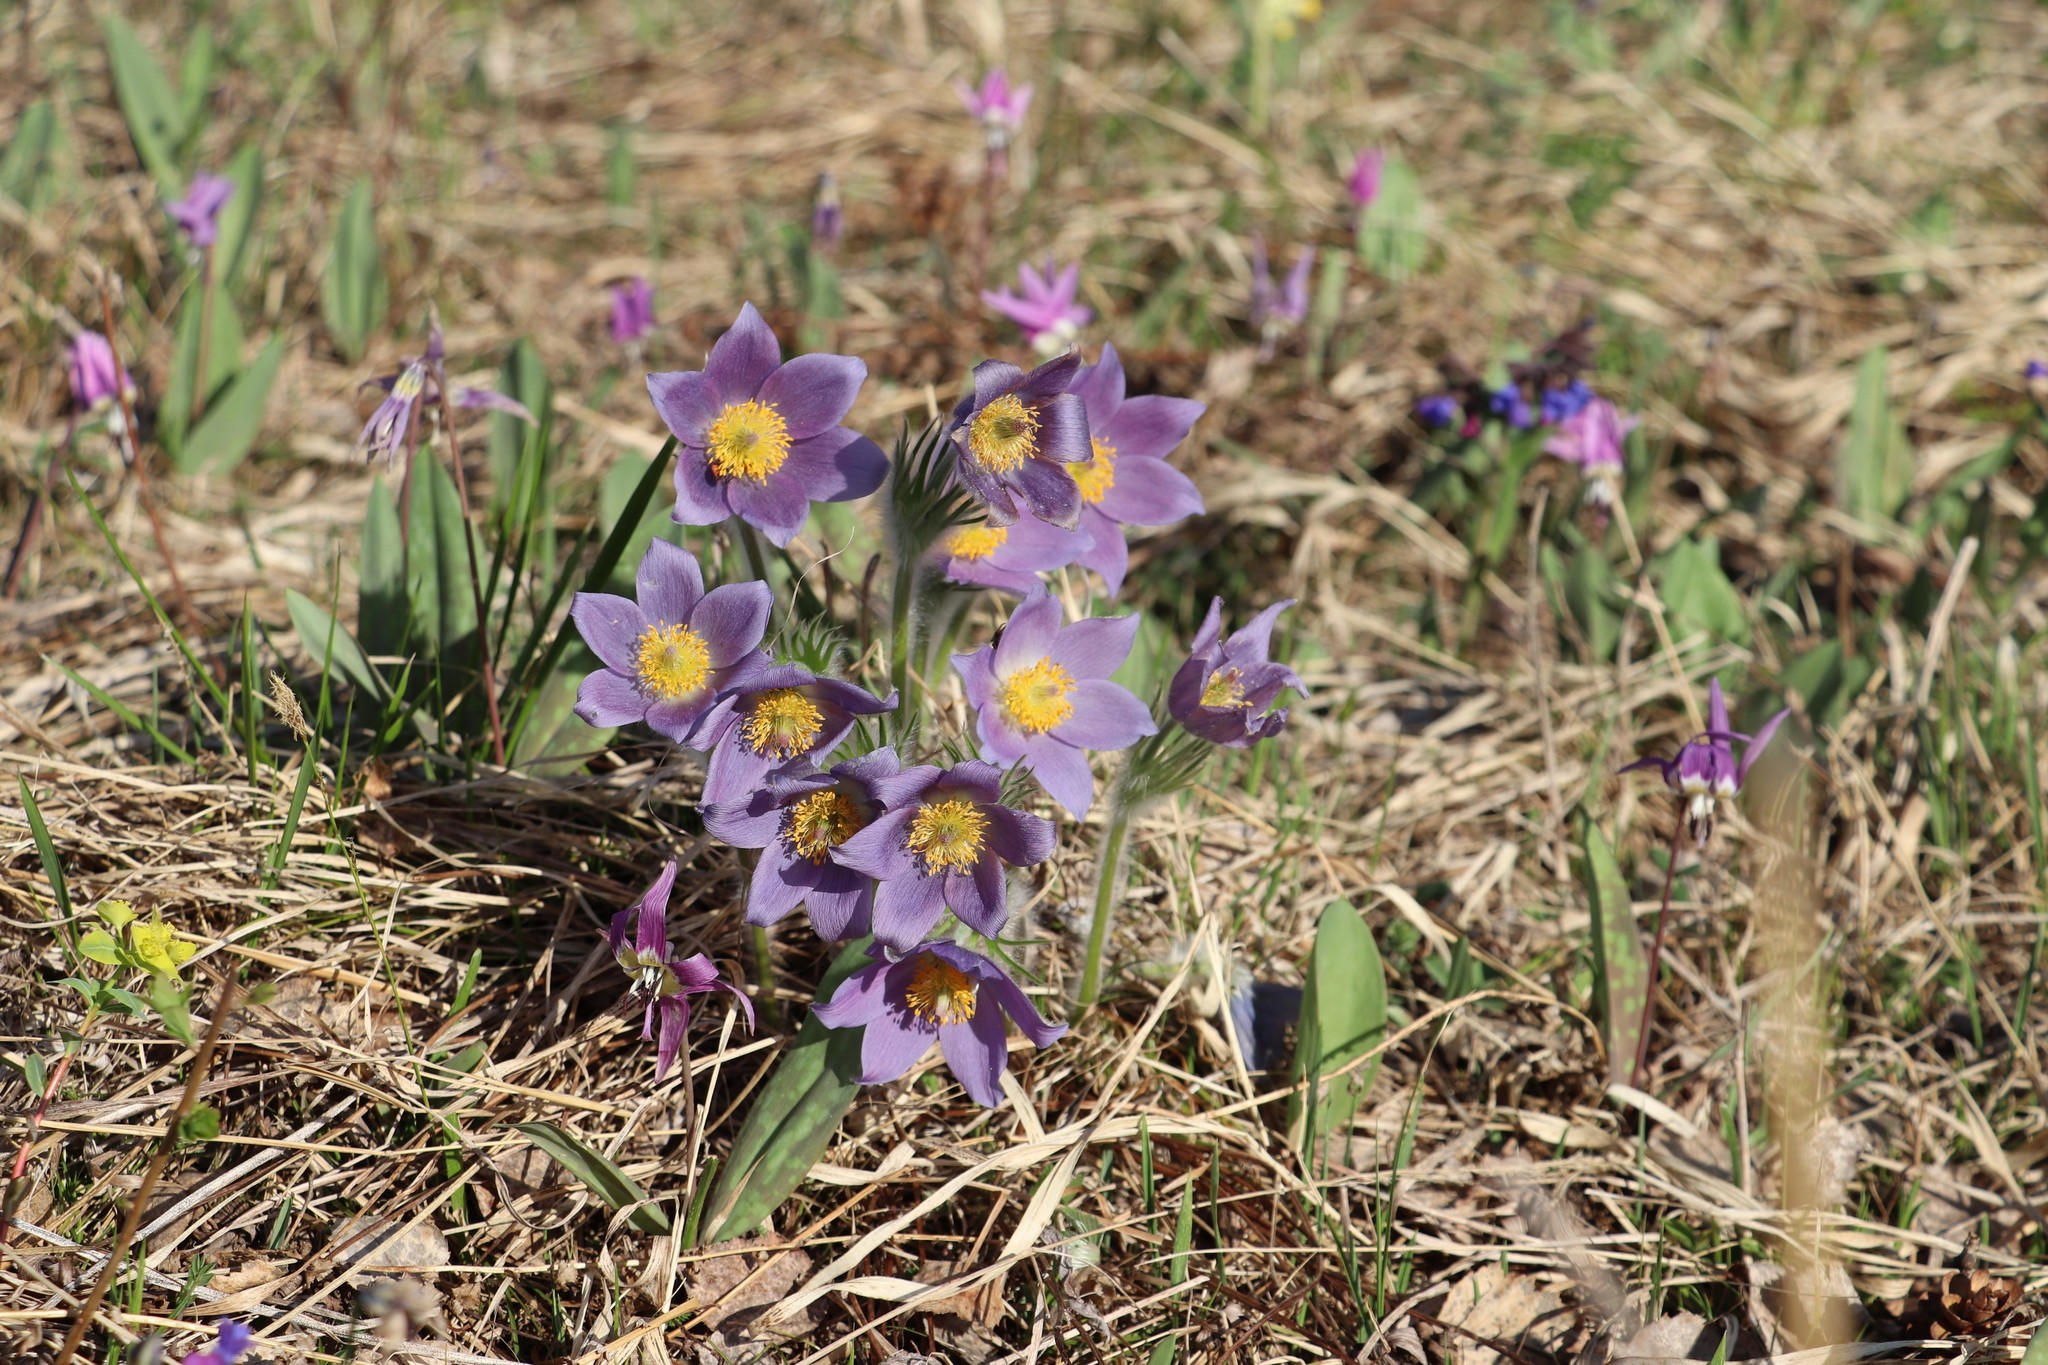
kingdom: Plantae
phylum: Tracheophyta
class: Magnoliopsida
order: Ranunculales
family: Ranunculaceae
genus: Pulsatilla
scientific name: Pulsatilla patens
